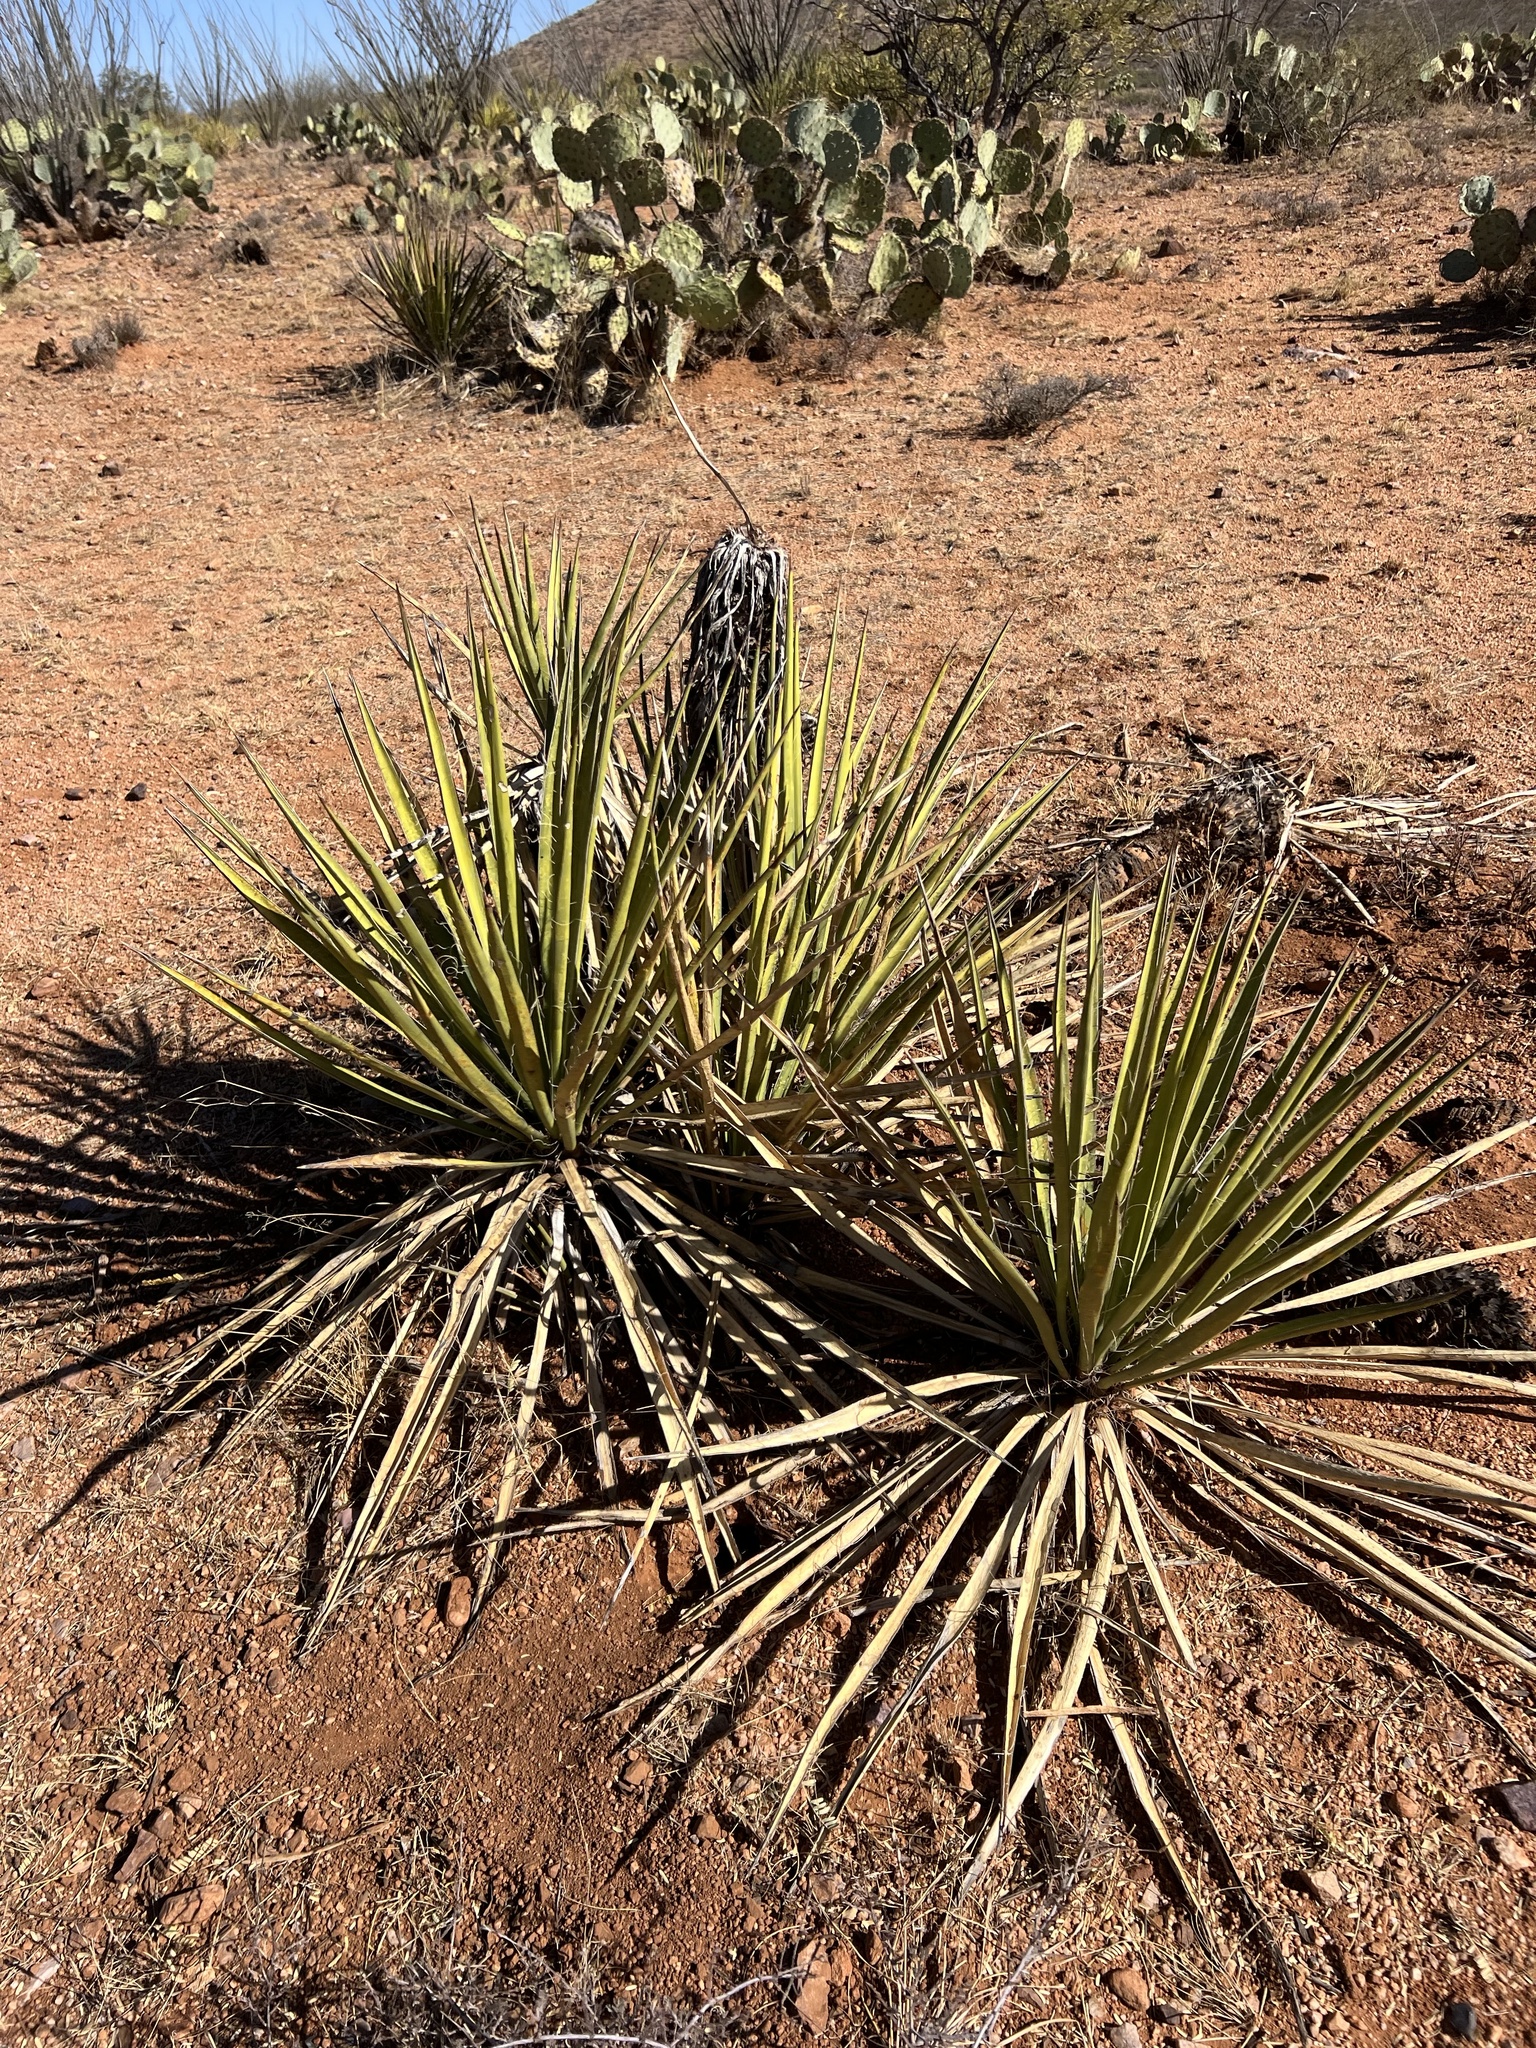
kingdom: Plantae
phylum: Tracheophyta
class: Liliopsida
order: Asparagales
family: Asparagaceae
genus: Yucca
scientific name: Yucca baccata
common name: Banana yucca
